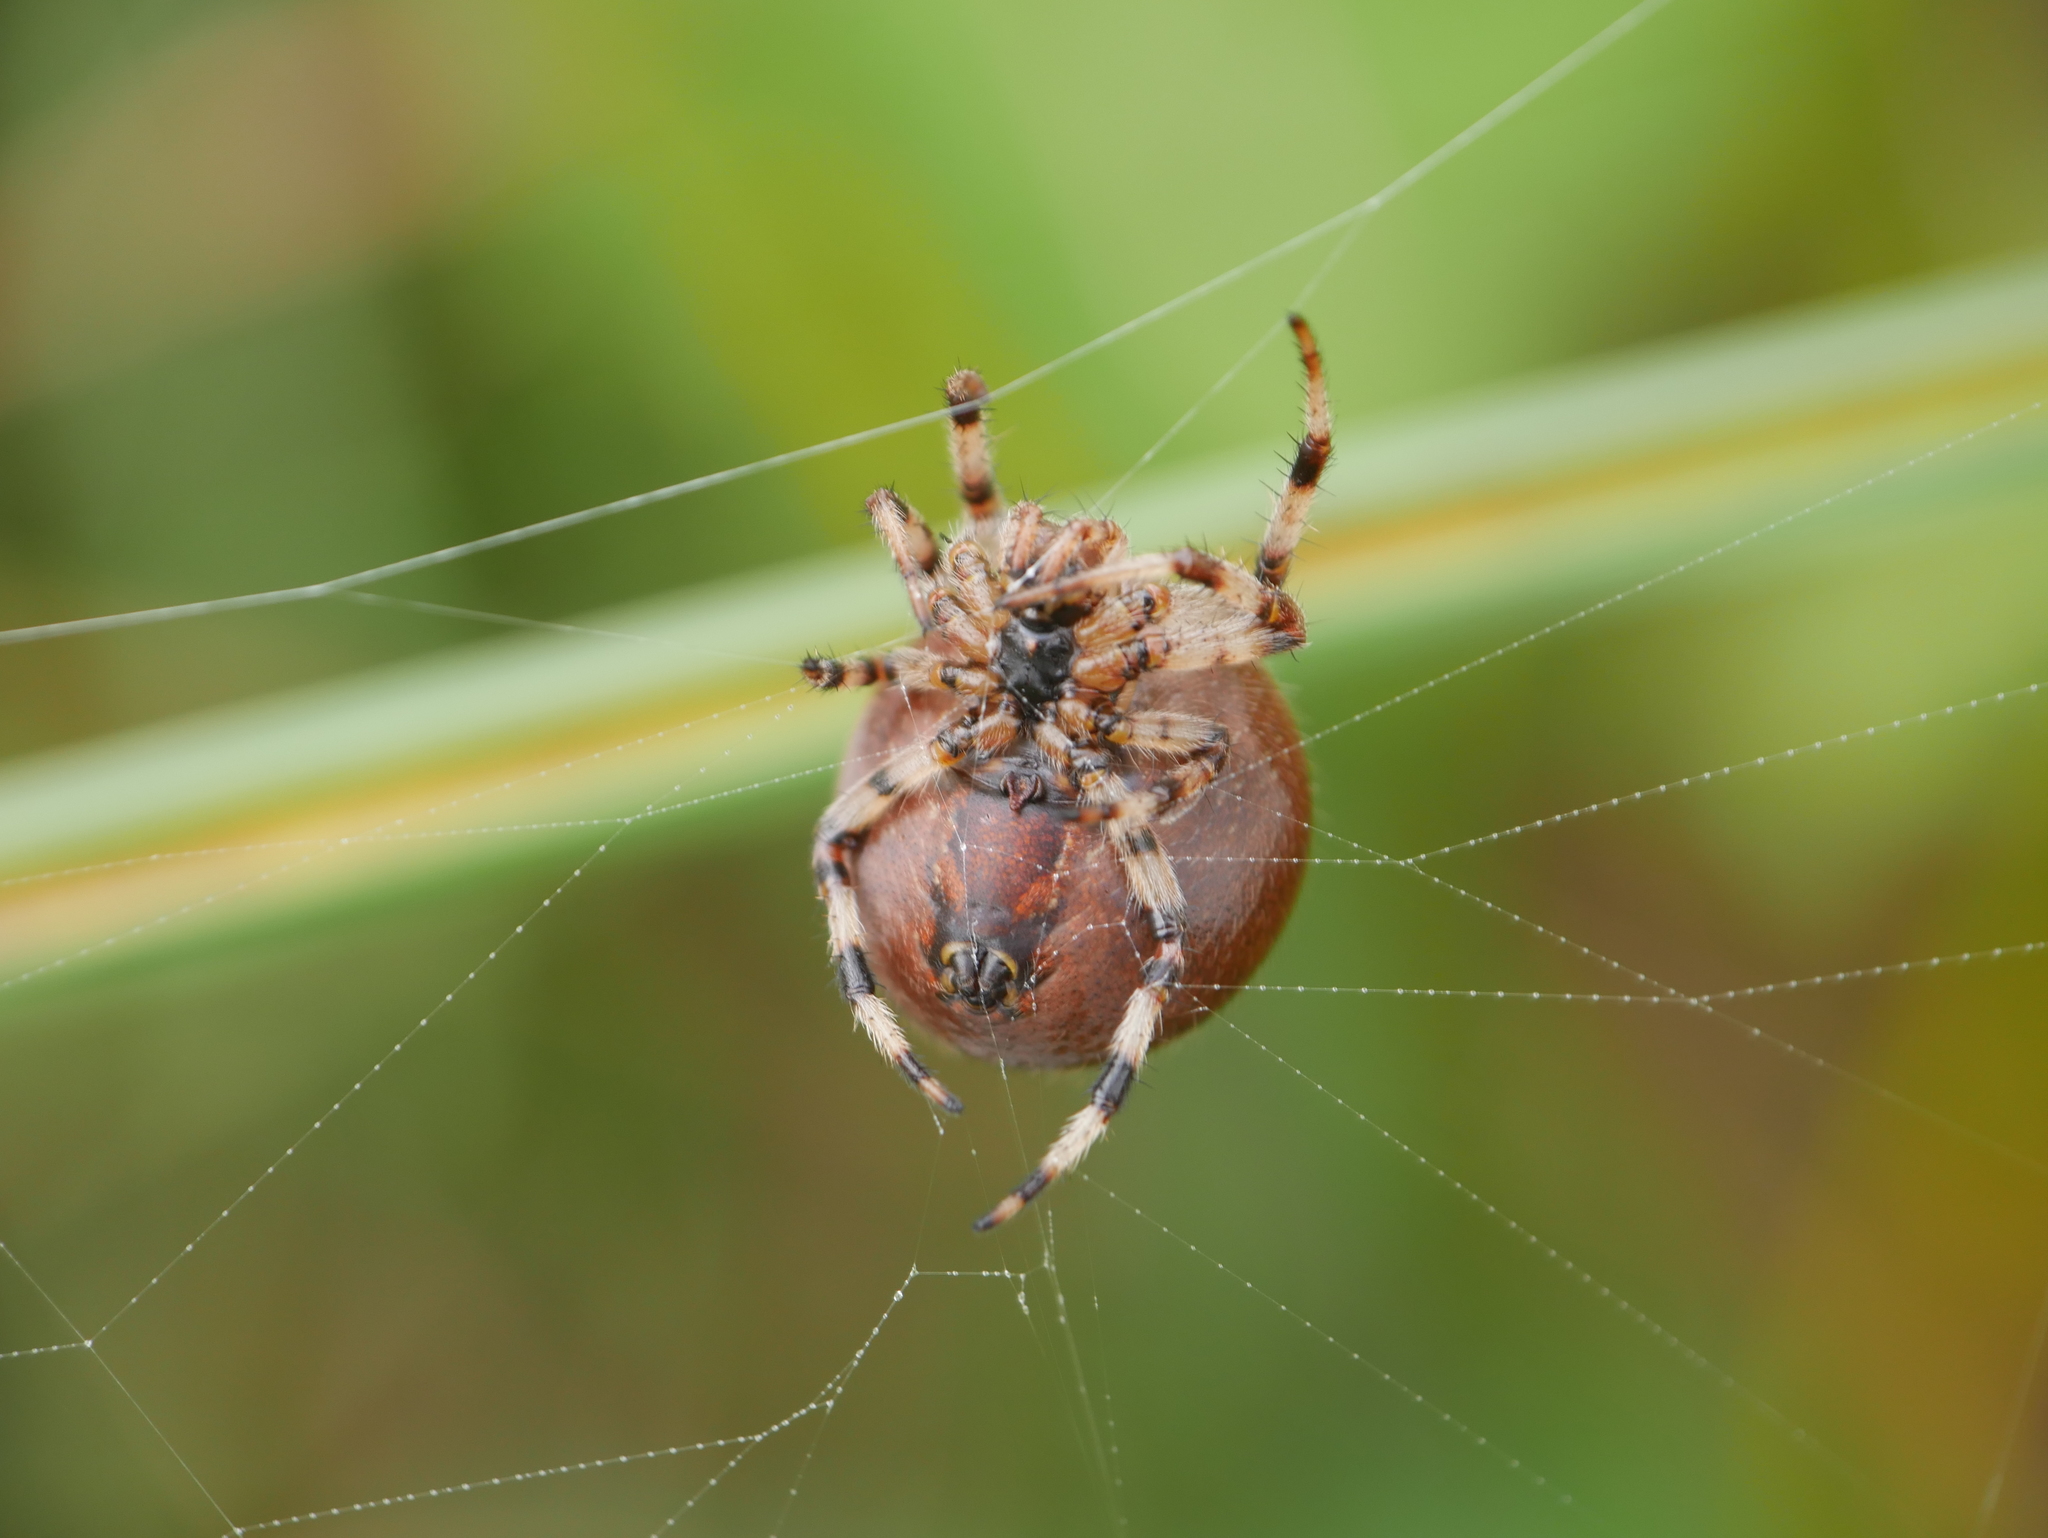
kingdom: Animalia
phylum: Arthropoda
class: Arachnida
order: Araneae
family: Araneidae
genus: Araneus
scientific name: Araneus quadratus
